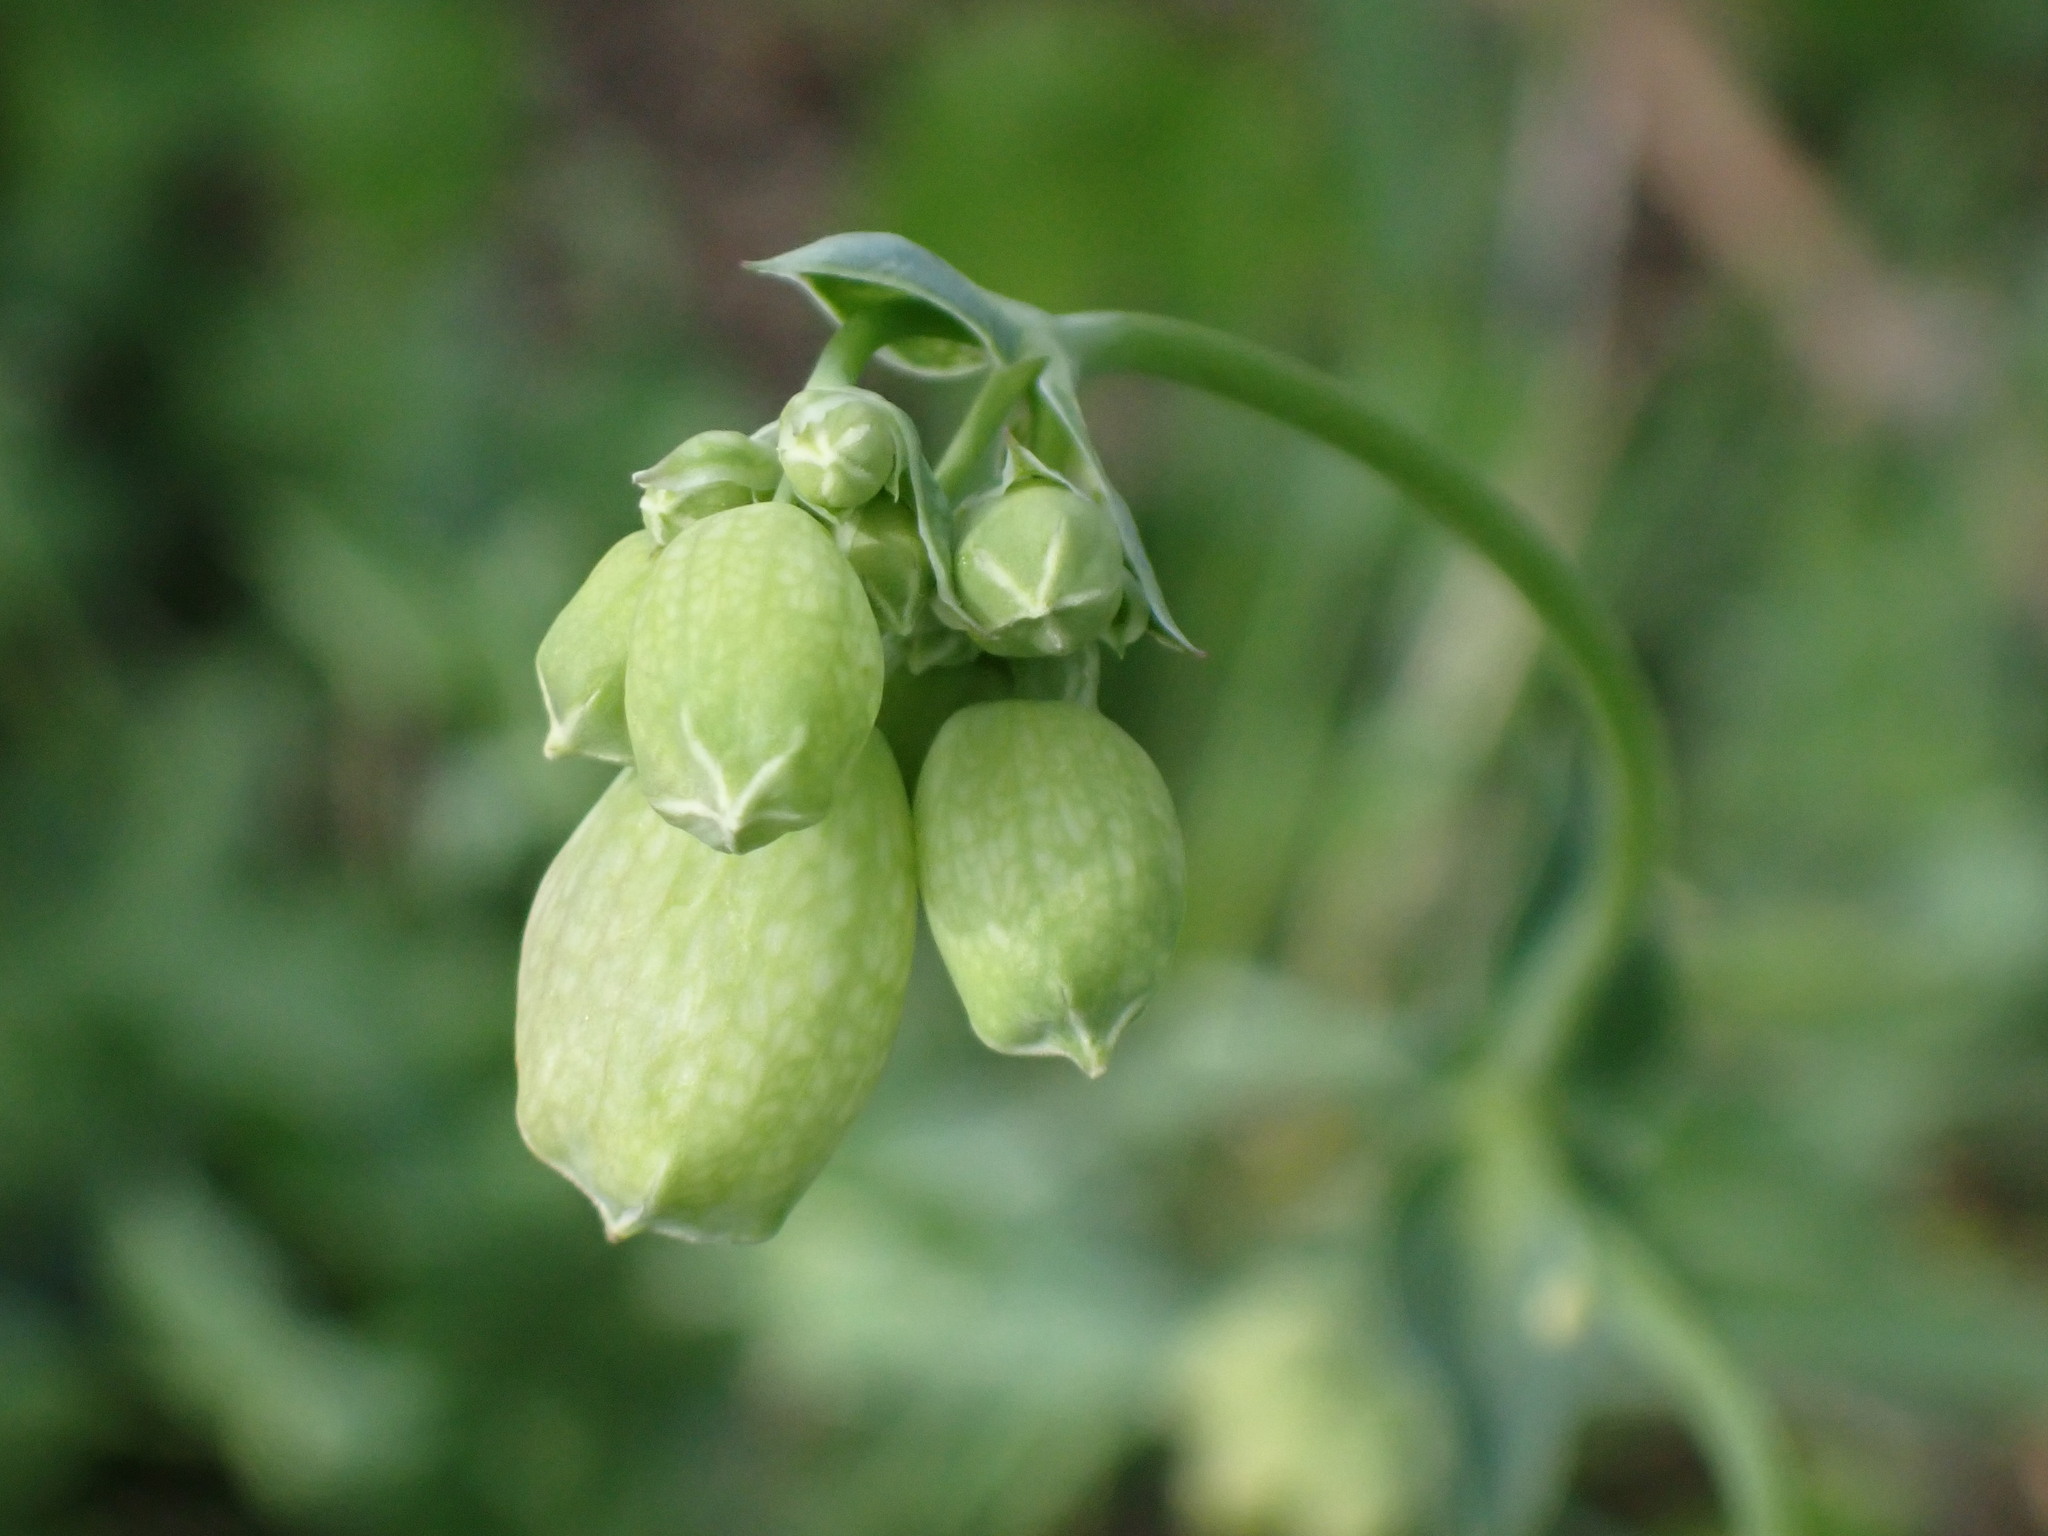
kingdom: Plantae
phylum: Tracheophyta
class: Magnoliopsida
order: Caryophyllales
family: Caryophyllaceae
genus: Silene
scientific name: Silene vulgaris
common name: Bladder campion
